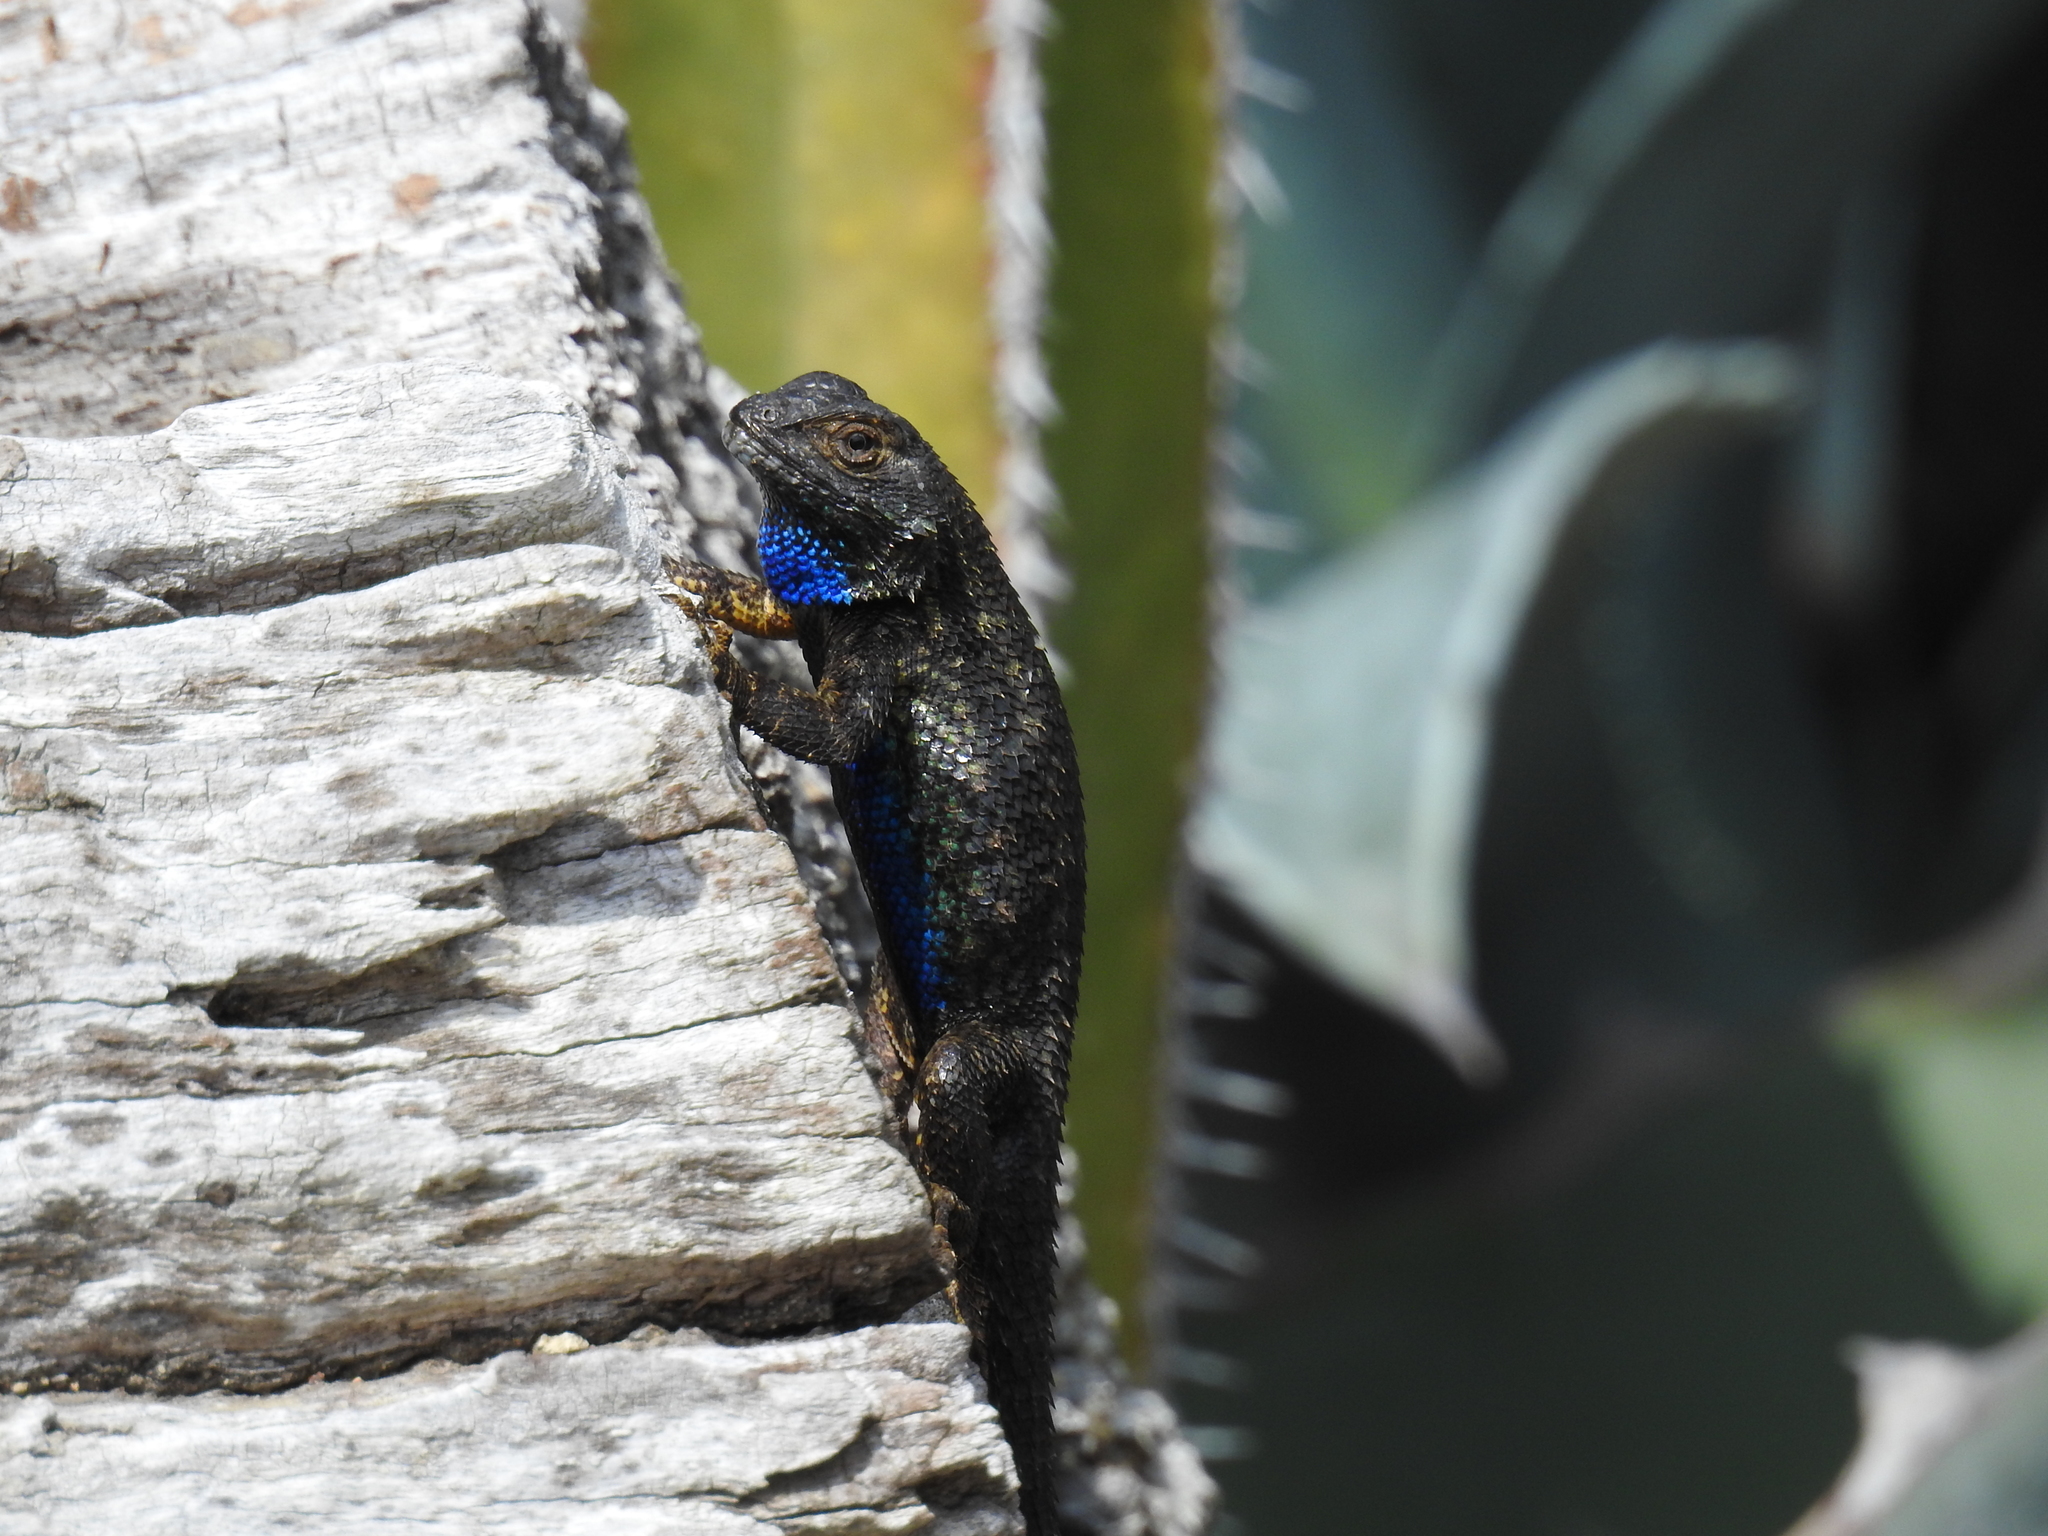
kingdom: Animalia
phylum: Chordata
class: Squamata
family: Phrynosomatidae
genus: Sceloporus
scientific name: Sceloporus occidentalis
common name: Western fence lizard
